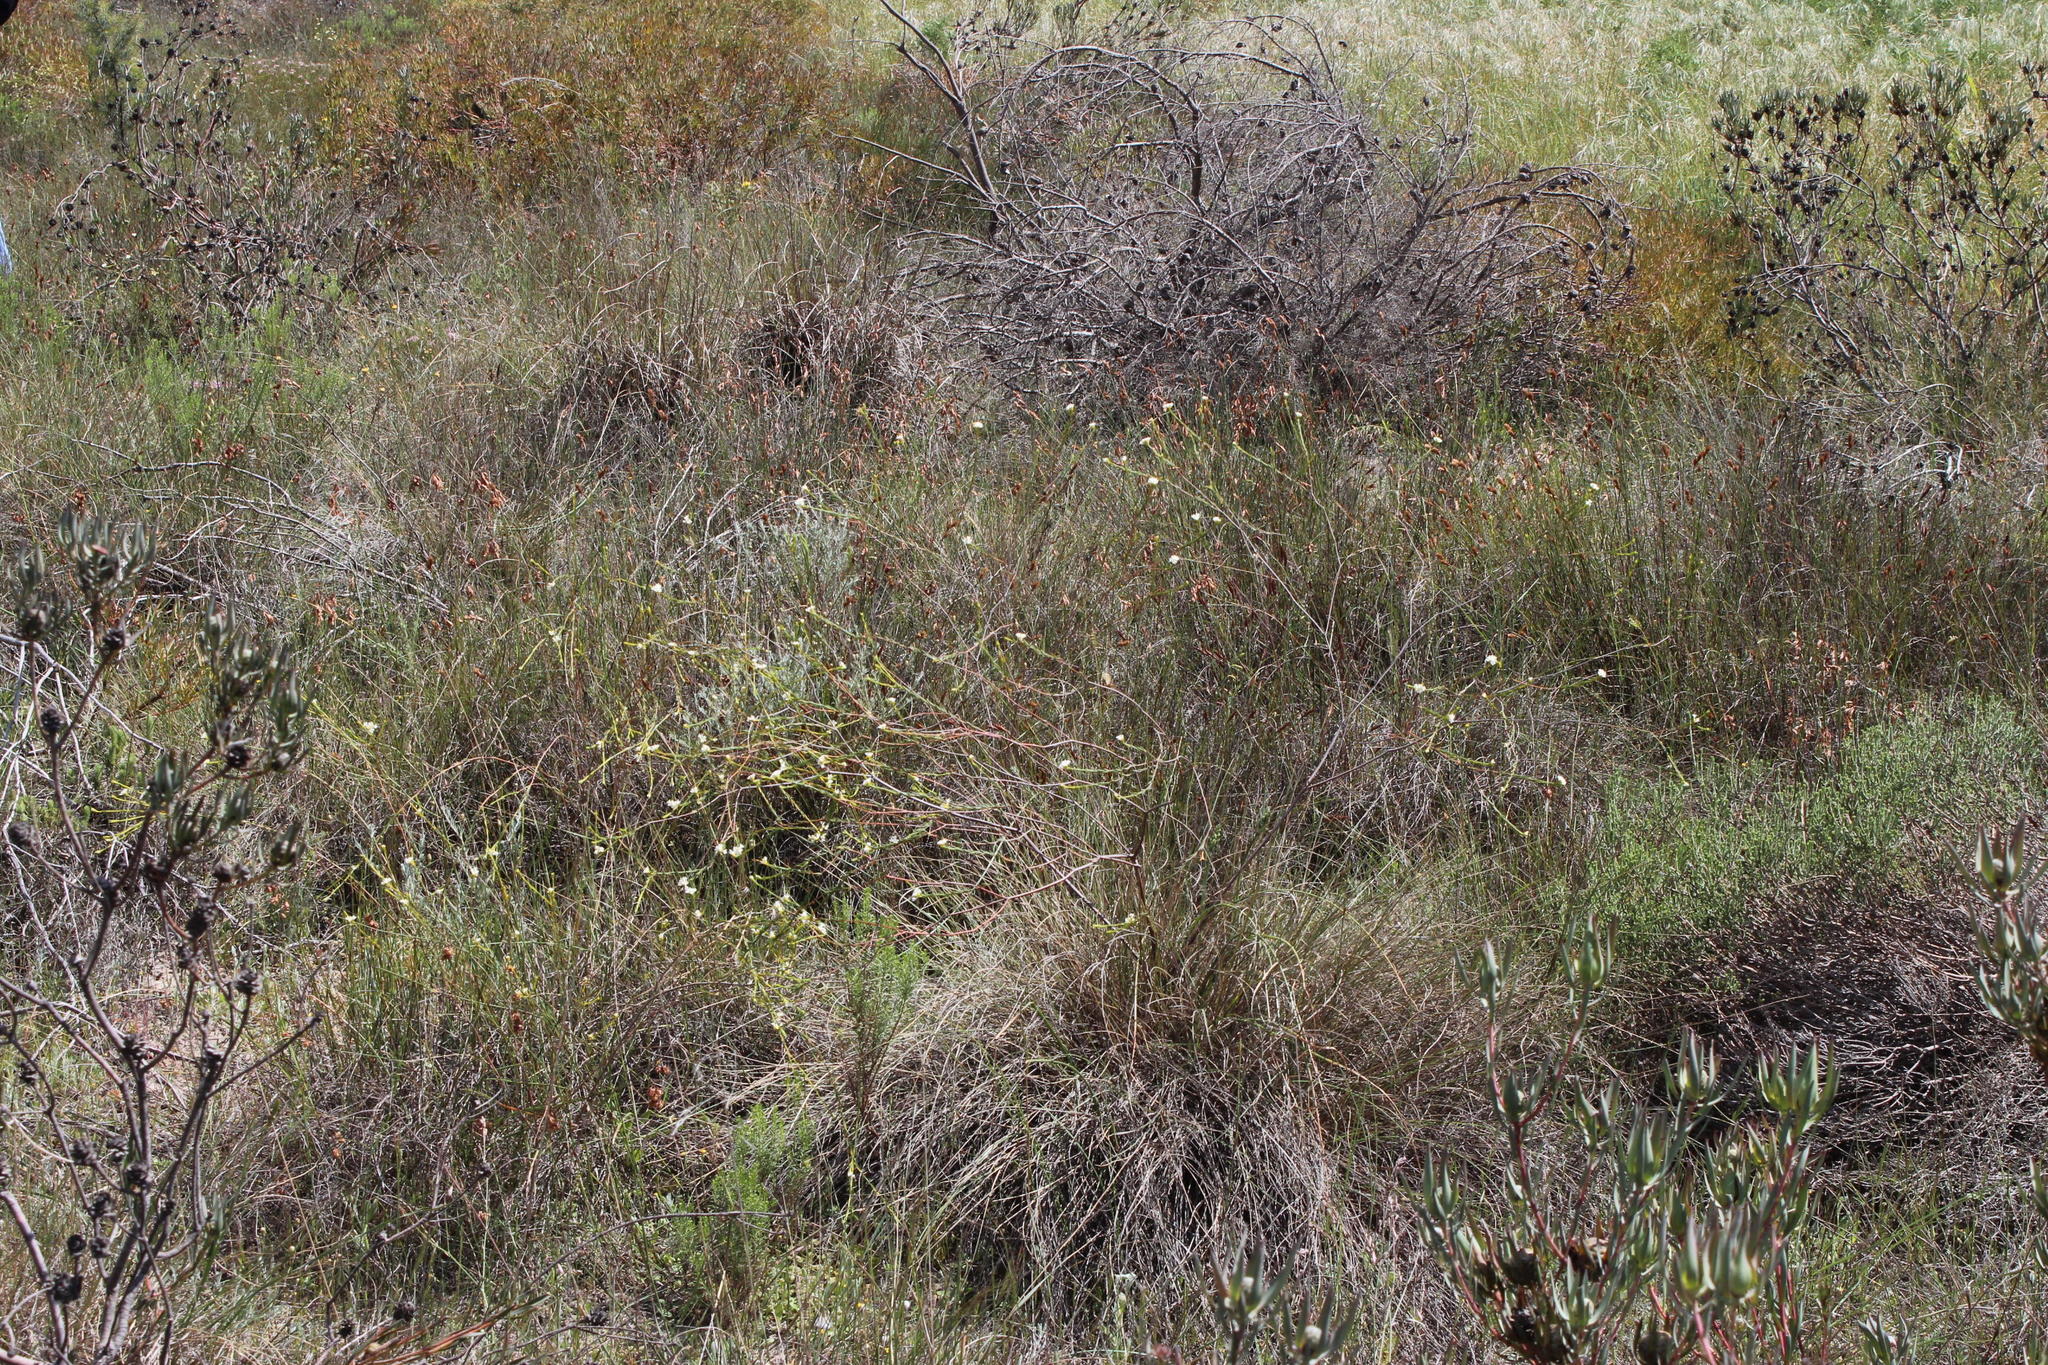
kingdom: Plantae
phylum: Tracheophyta
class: Magnoliopsida
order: Malvales
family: Thymelaeaceae
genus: Lachnaea
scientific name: Lachnaea capitata
